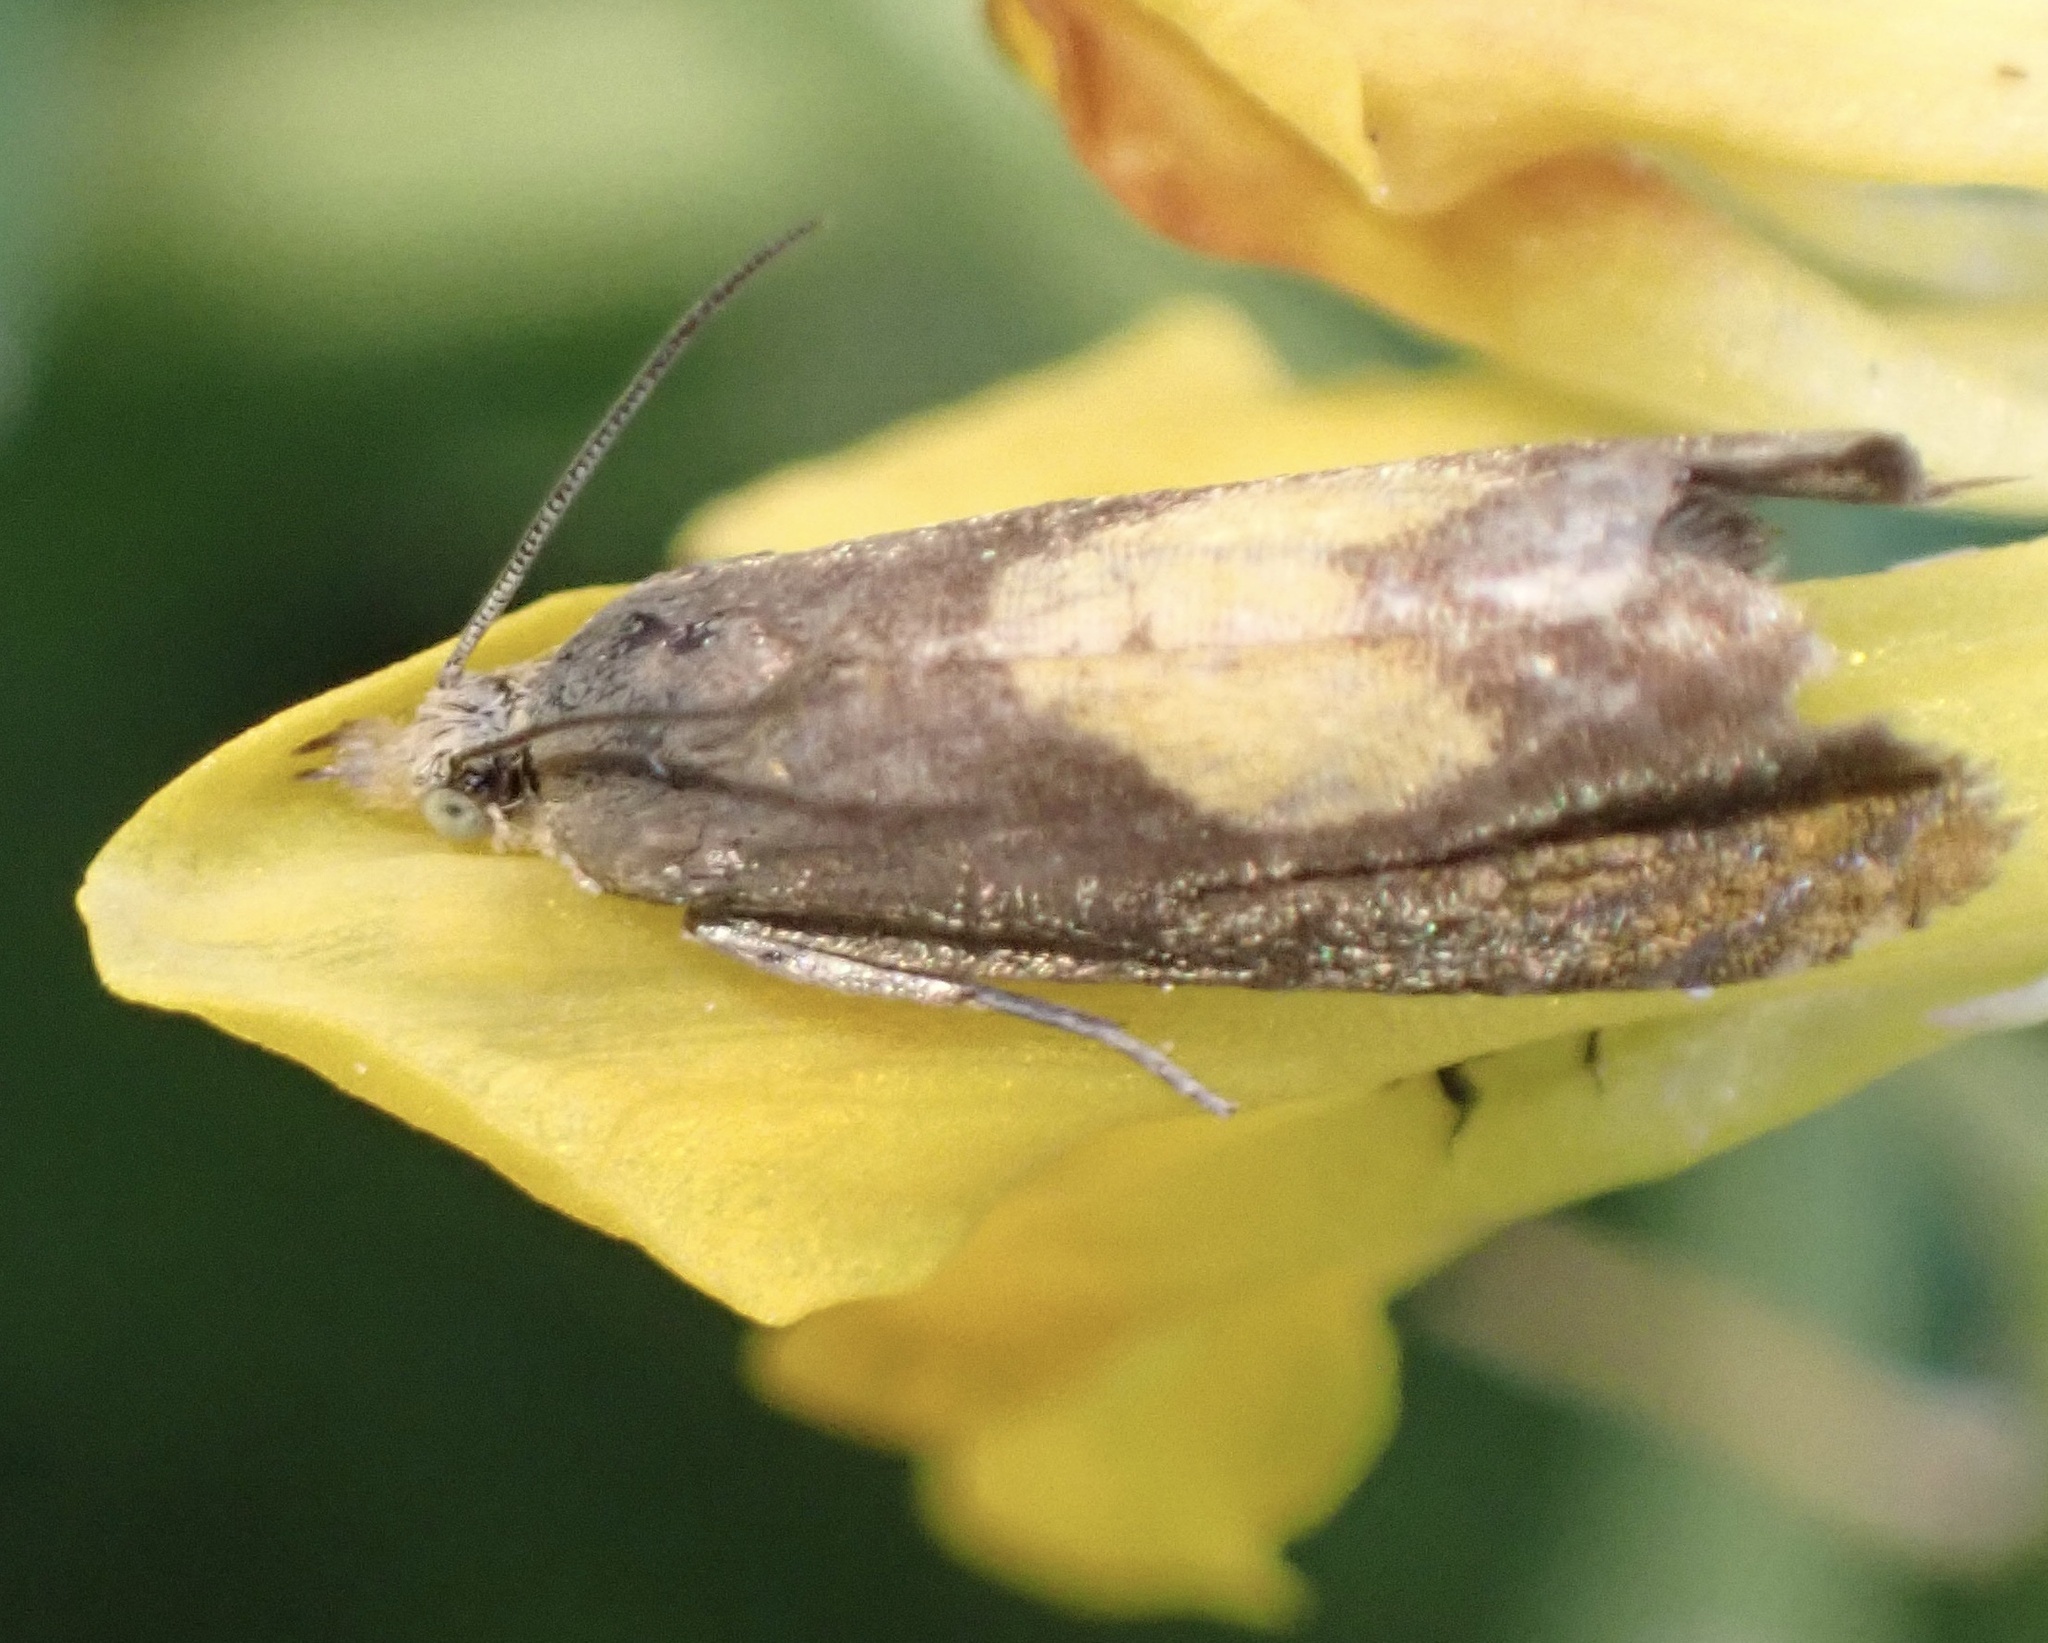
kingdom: Animalia
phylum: Arthropoda
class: Insecta
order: Lepidoptera
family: Tortricidae
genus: Dichrorampha
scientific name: Dichrorampha alpinana
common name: Broad-blotch drill
